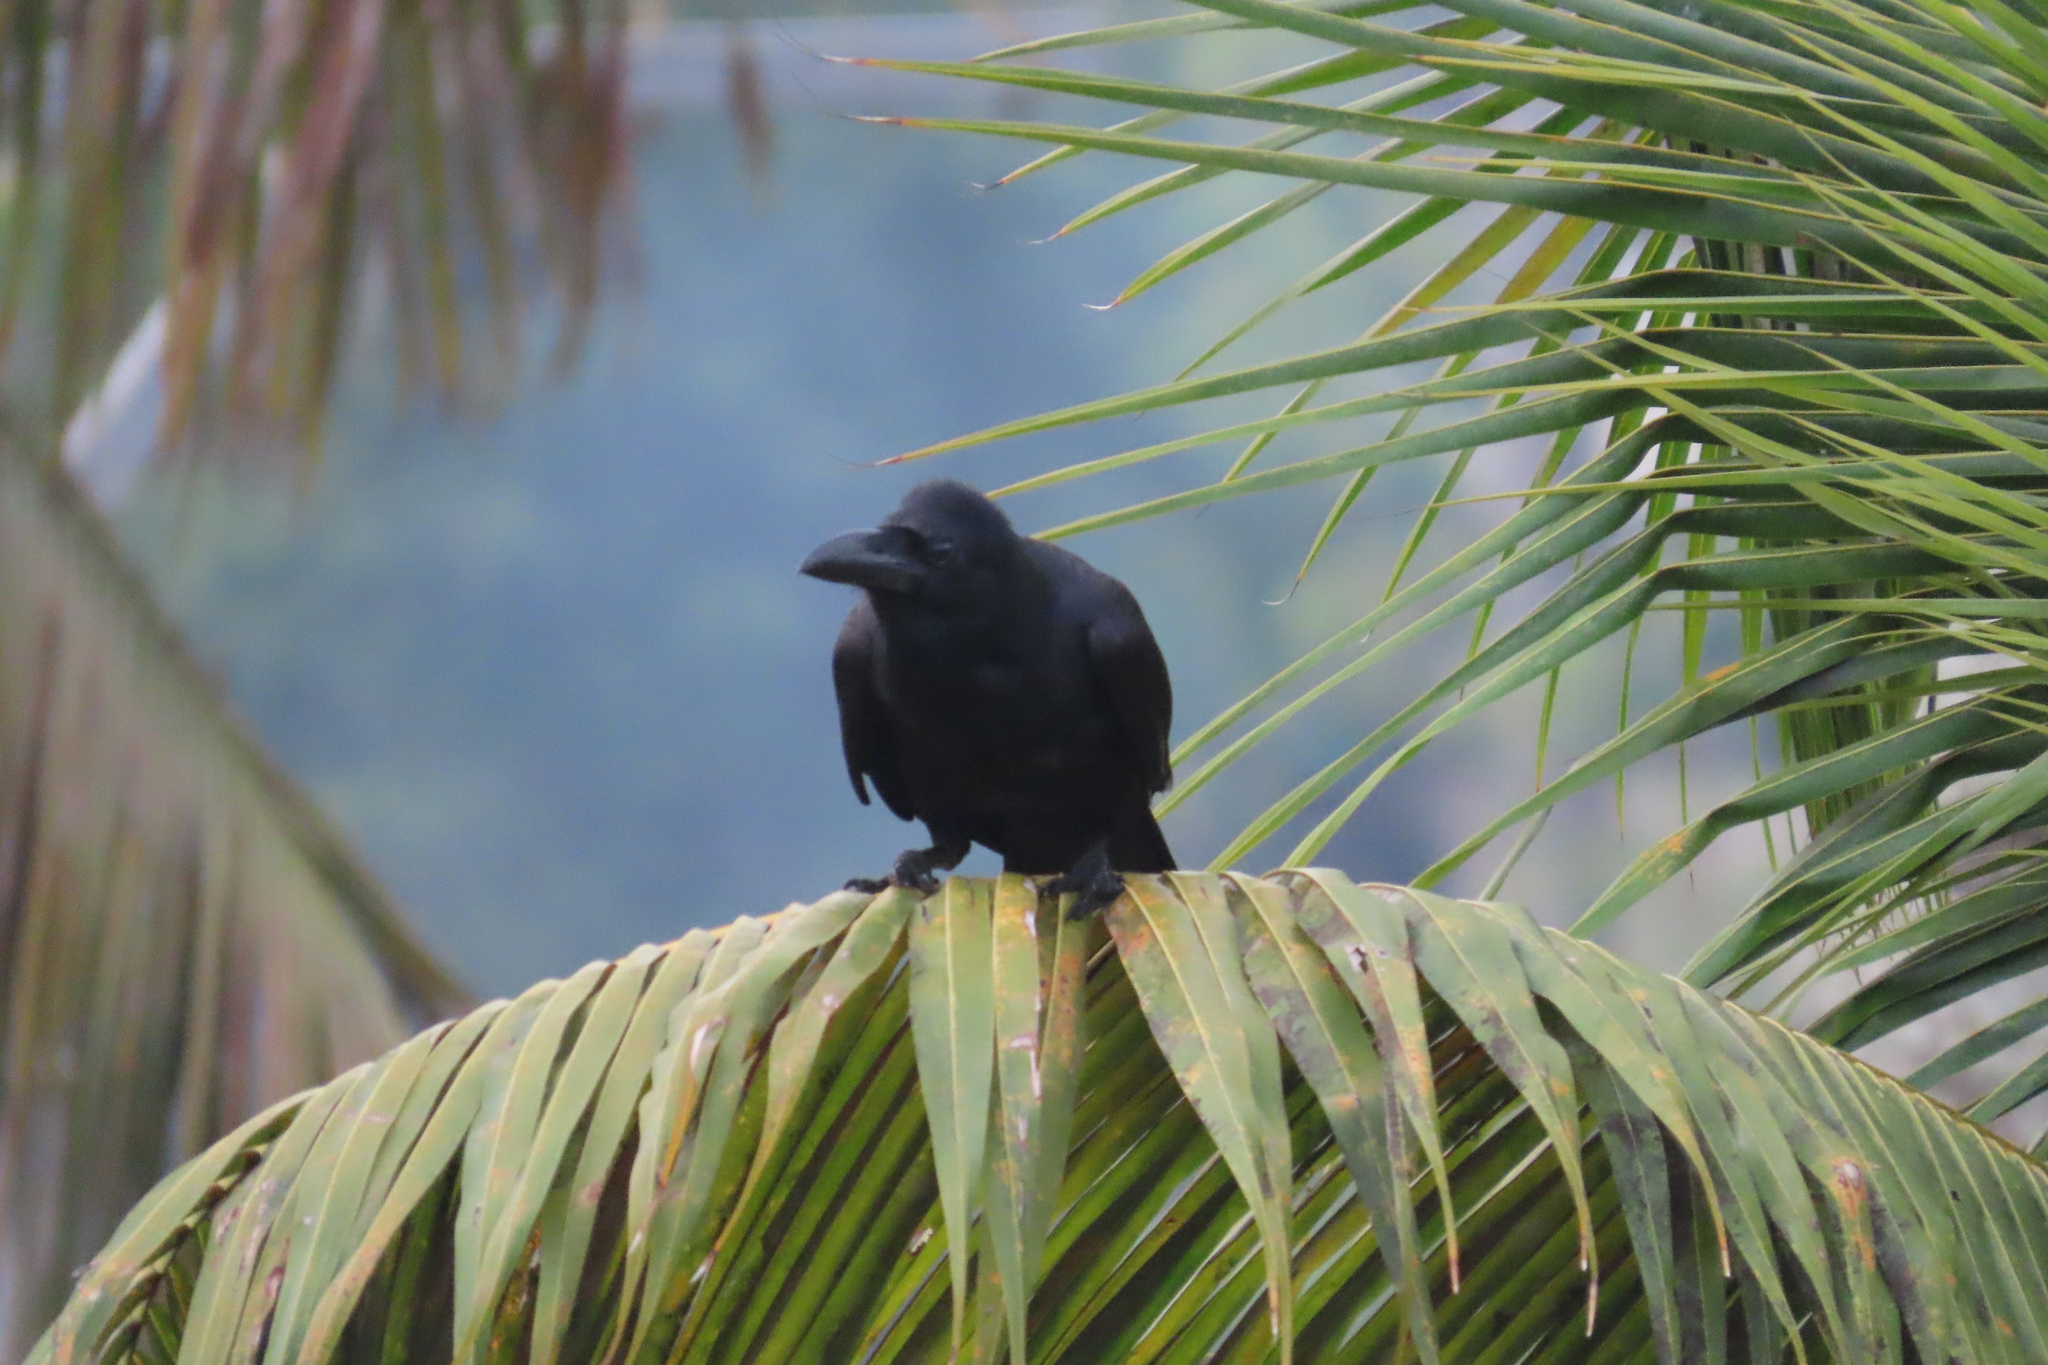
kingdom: Animalia
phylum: Chordata
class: Aves
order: Passeriformes
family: Corvidae
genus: Corvus
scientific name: Corvus macrorhynchos
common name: Large-billed crow
